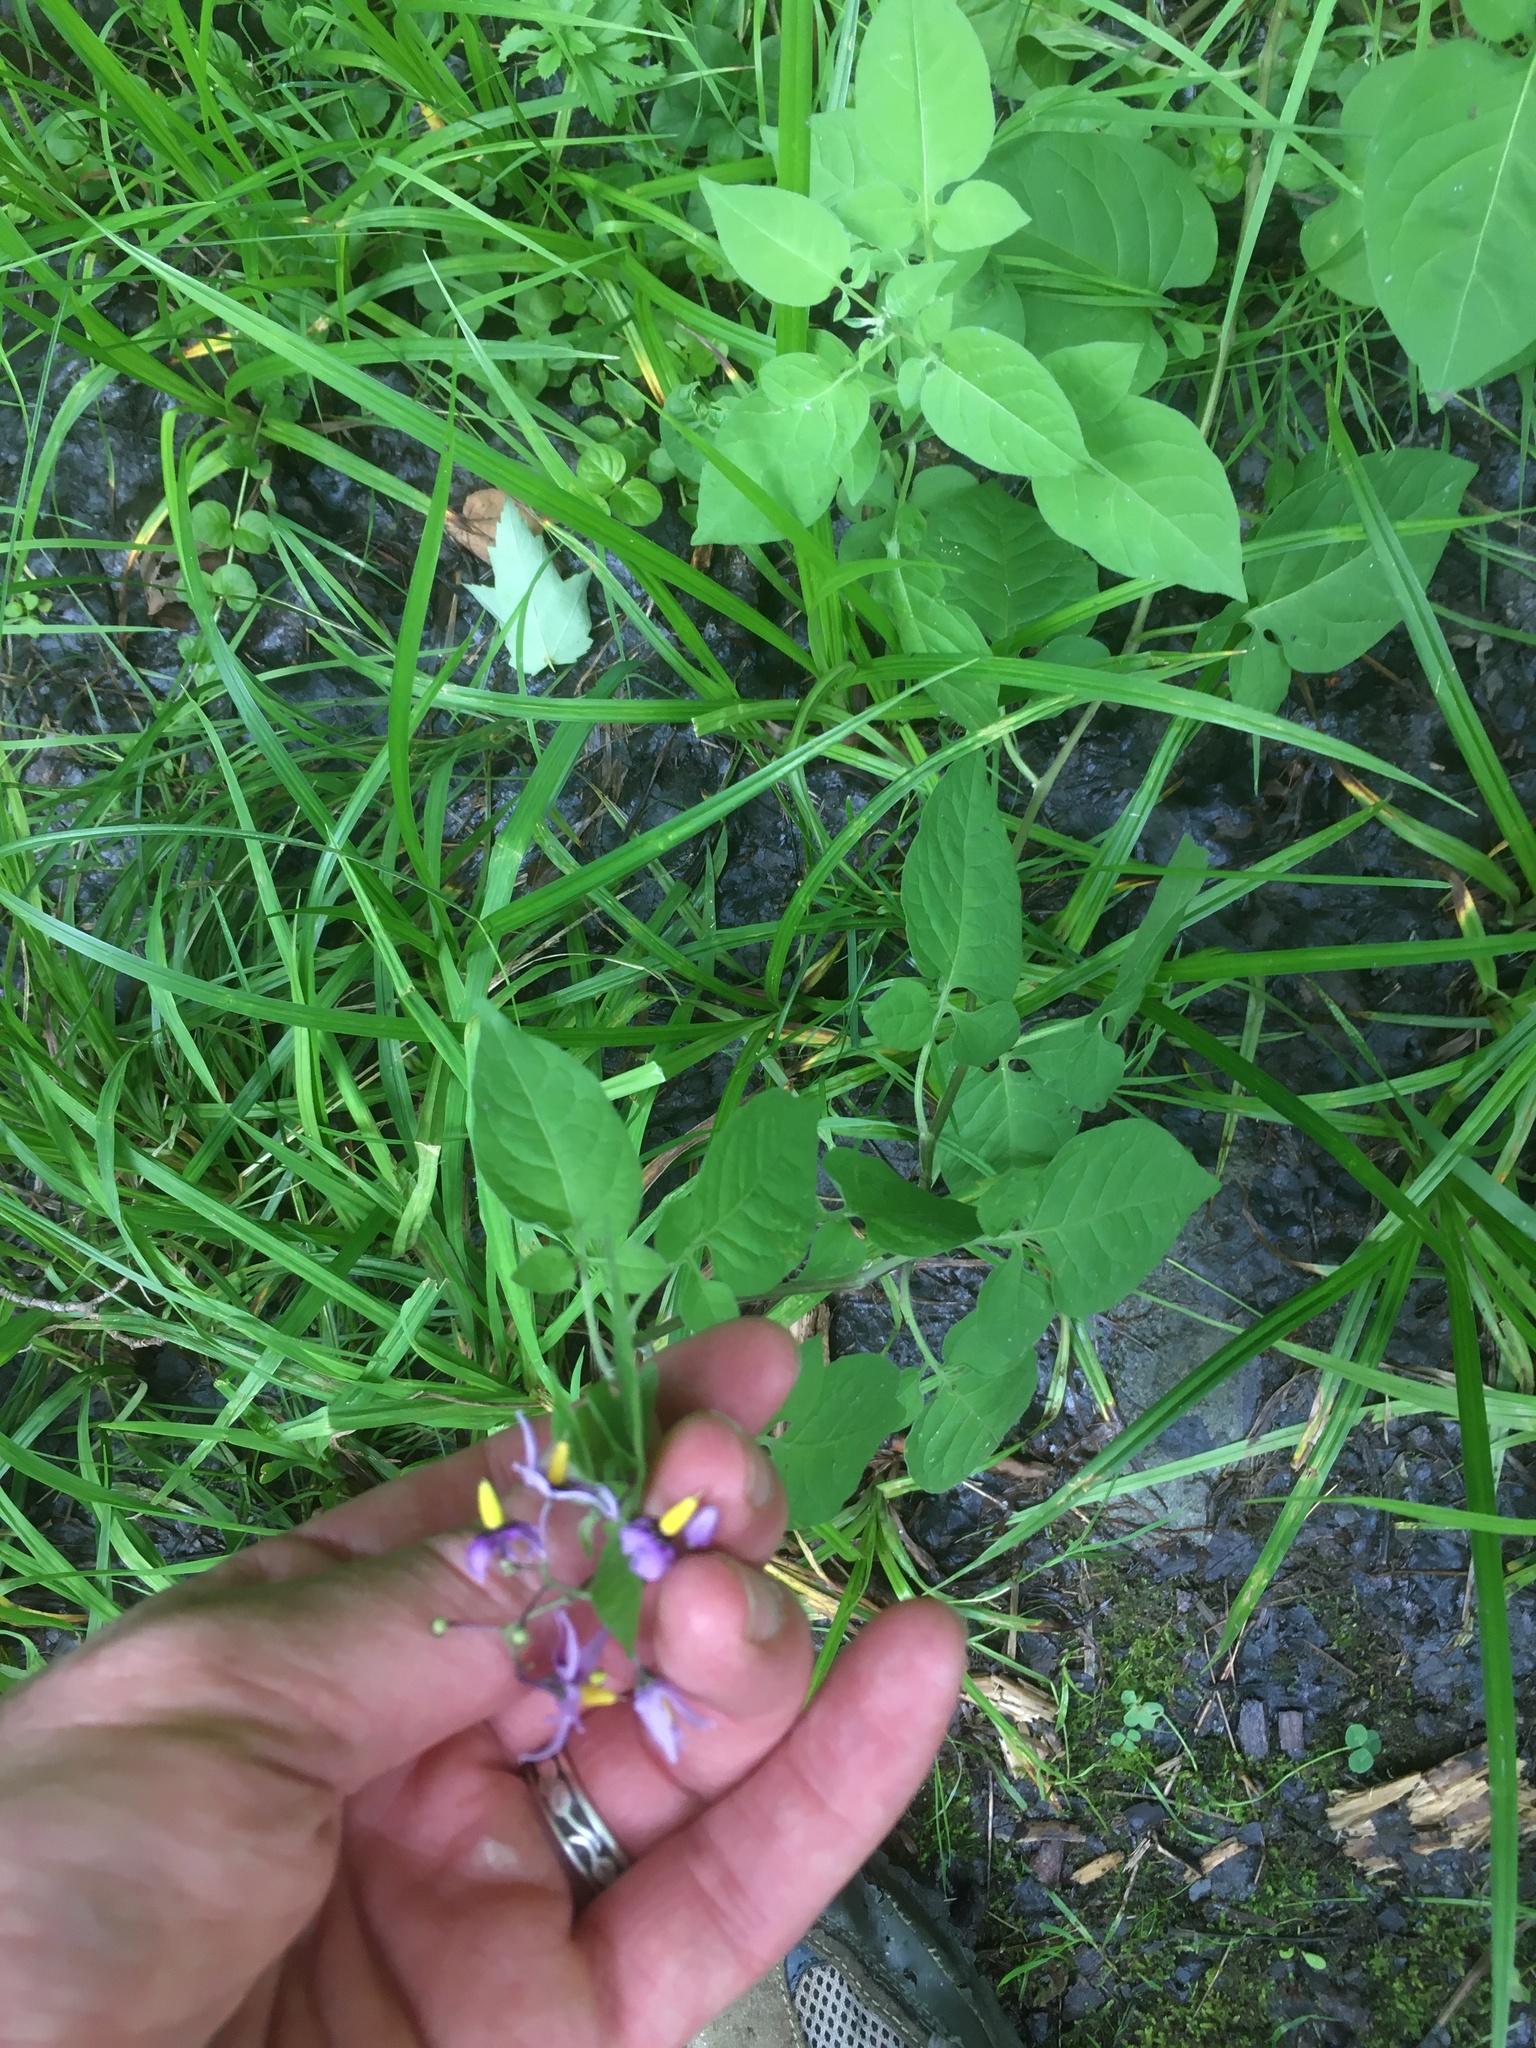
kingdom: Plantae
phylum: Tracheophyta
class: Magnoliopsida
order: Solanales
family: Solanaceae
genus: Solanum
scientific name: Solanum dulcamara
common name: Climbing nightshade
